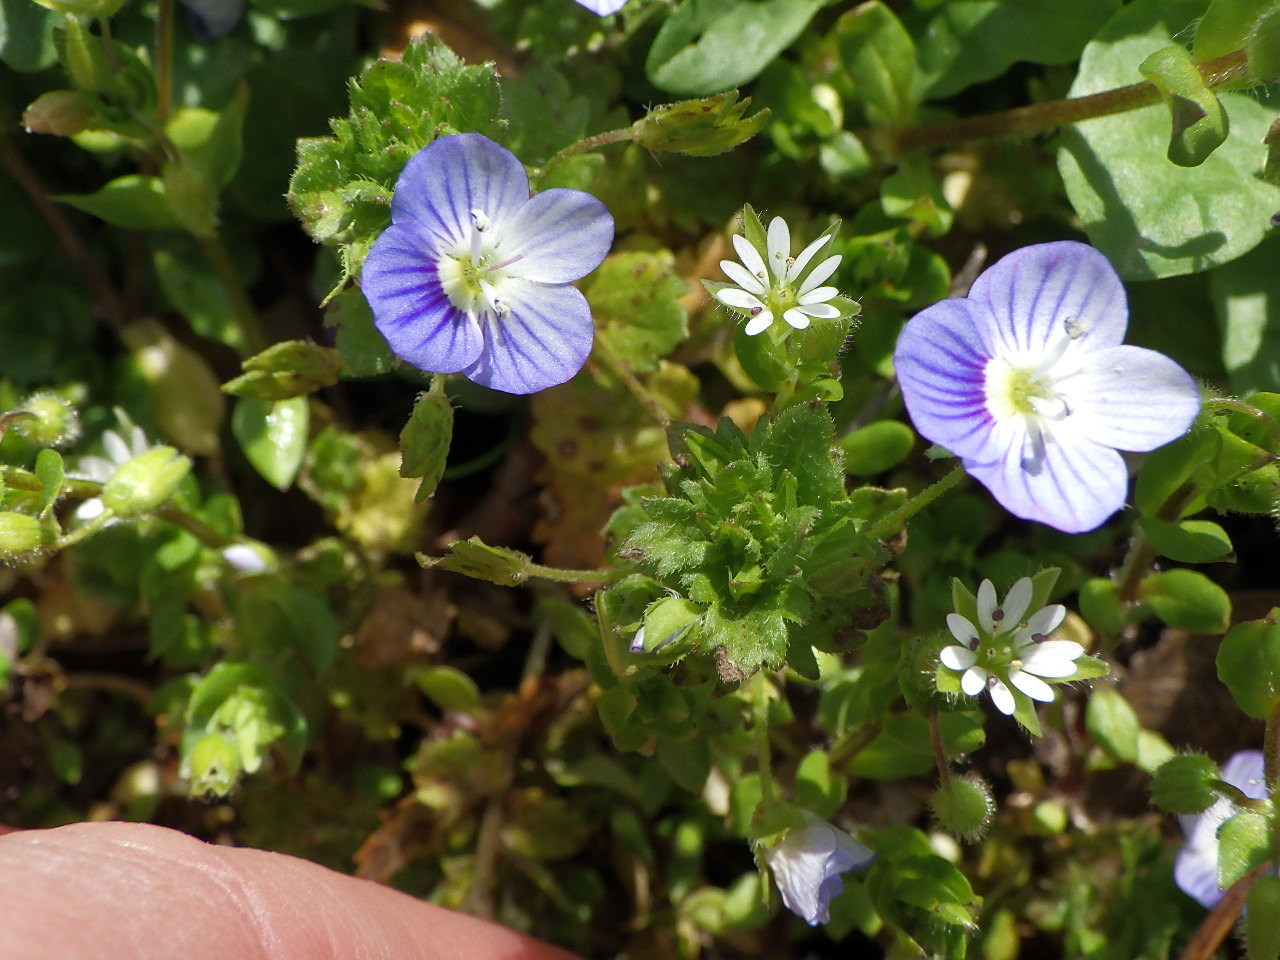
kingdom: Plantae
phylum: Tracheophyta
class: Magnoliopsida
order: Lamiales
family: Plantaginaceae
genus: Veronica
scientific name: Veronica persica
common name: Common field-speedwell
